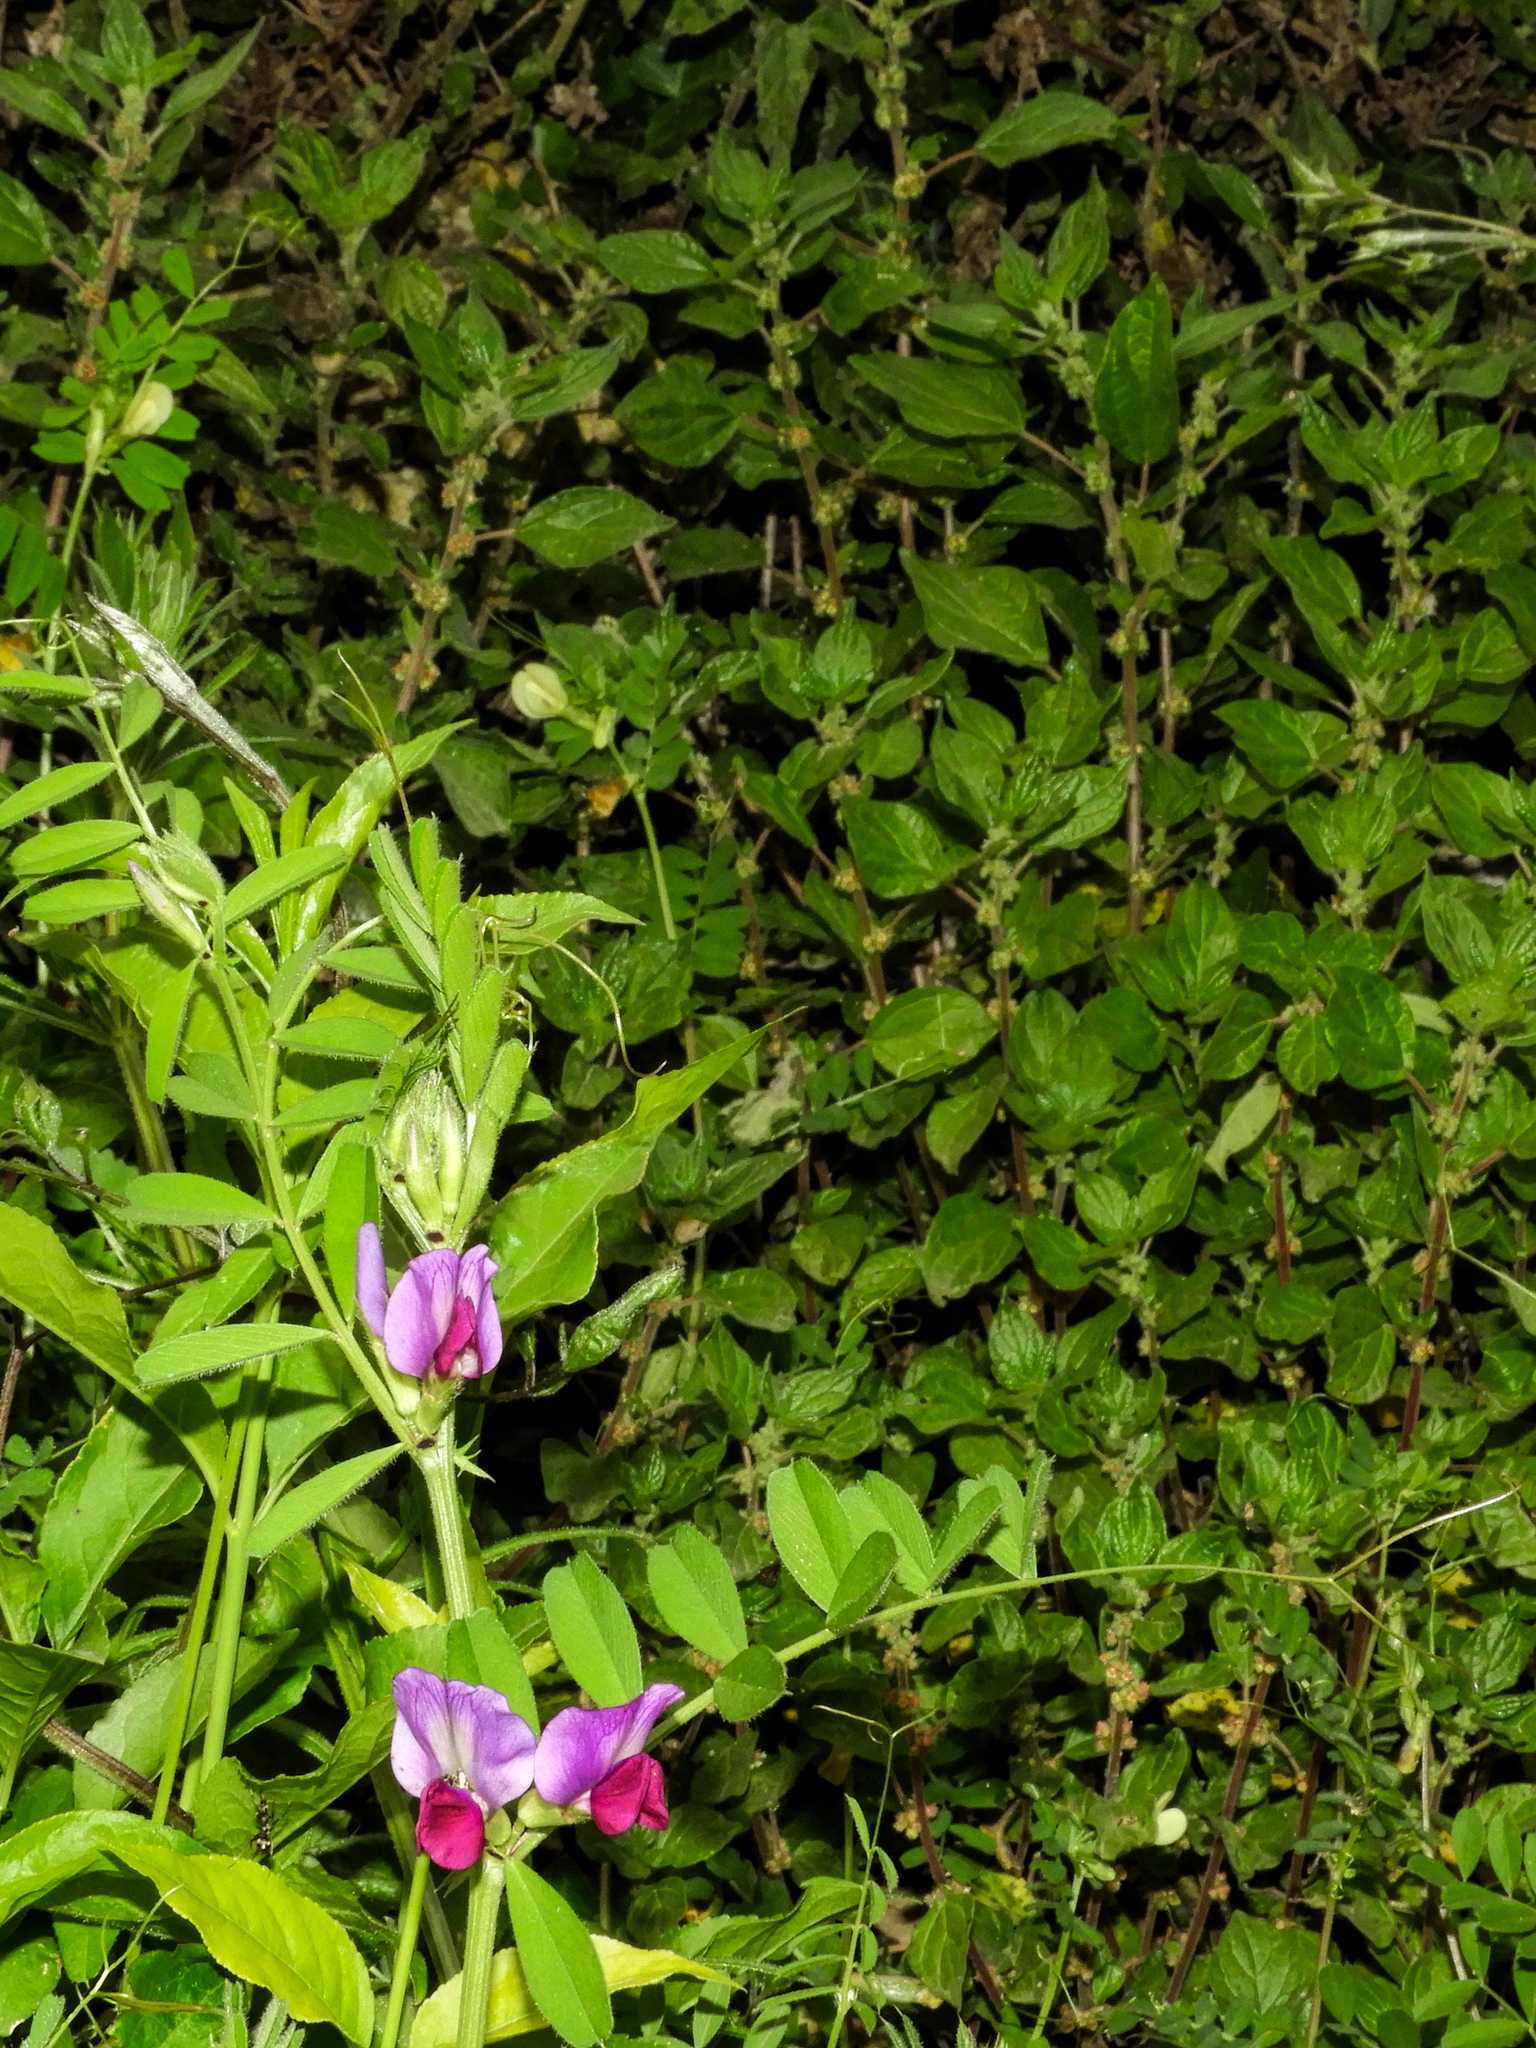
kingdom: Plantae
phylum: Tracheophyta
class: Magnoliopsida
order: Fabales
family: Fabaceae
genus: Vicia
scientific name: Vicia sativa
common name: Garden vetch
